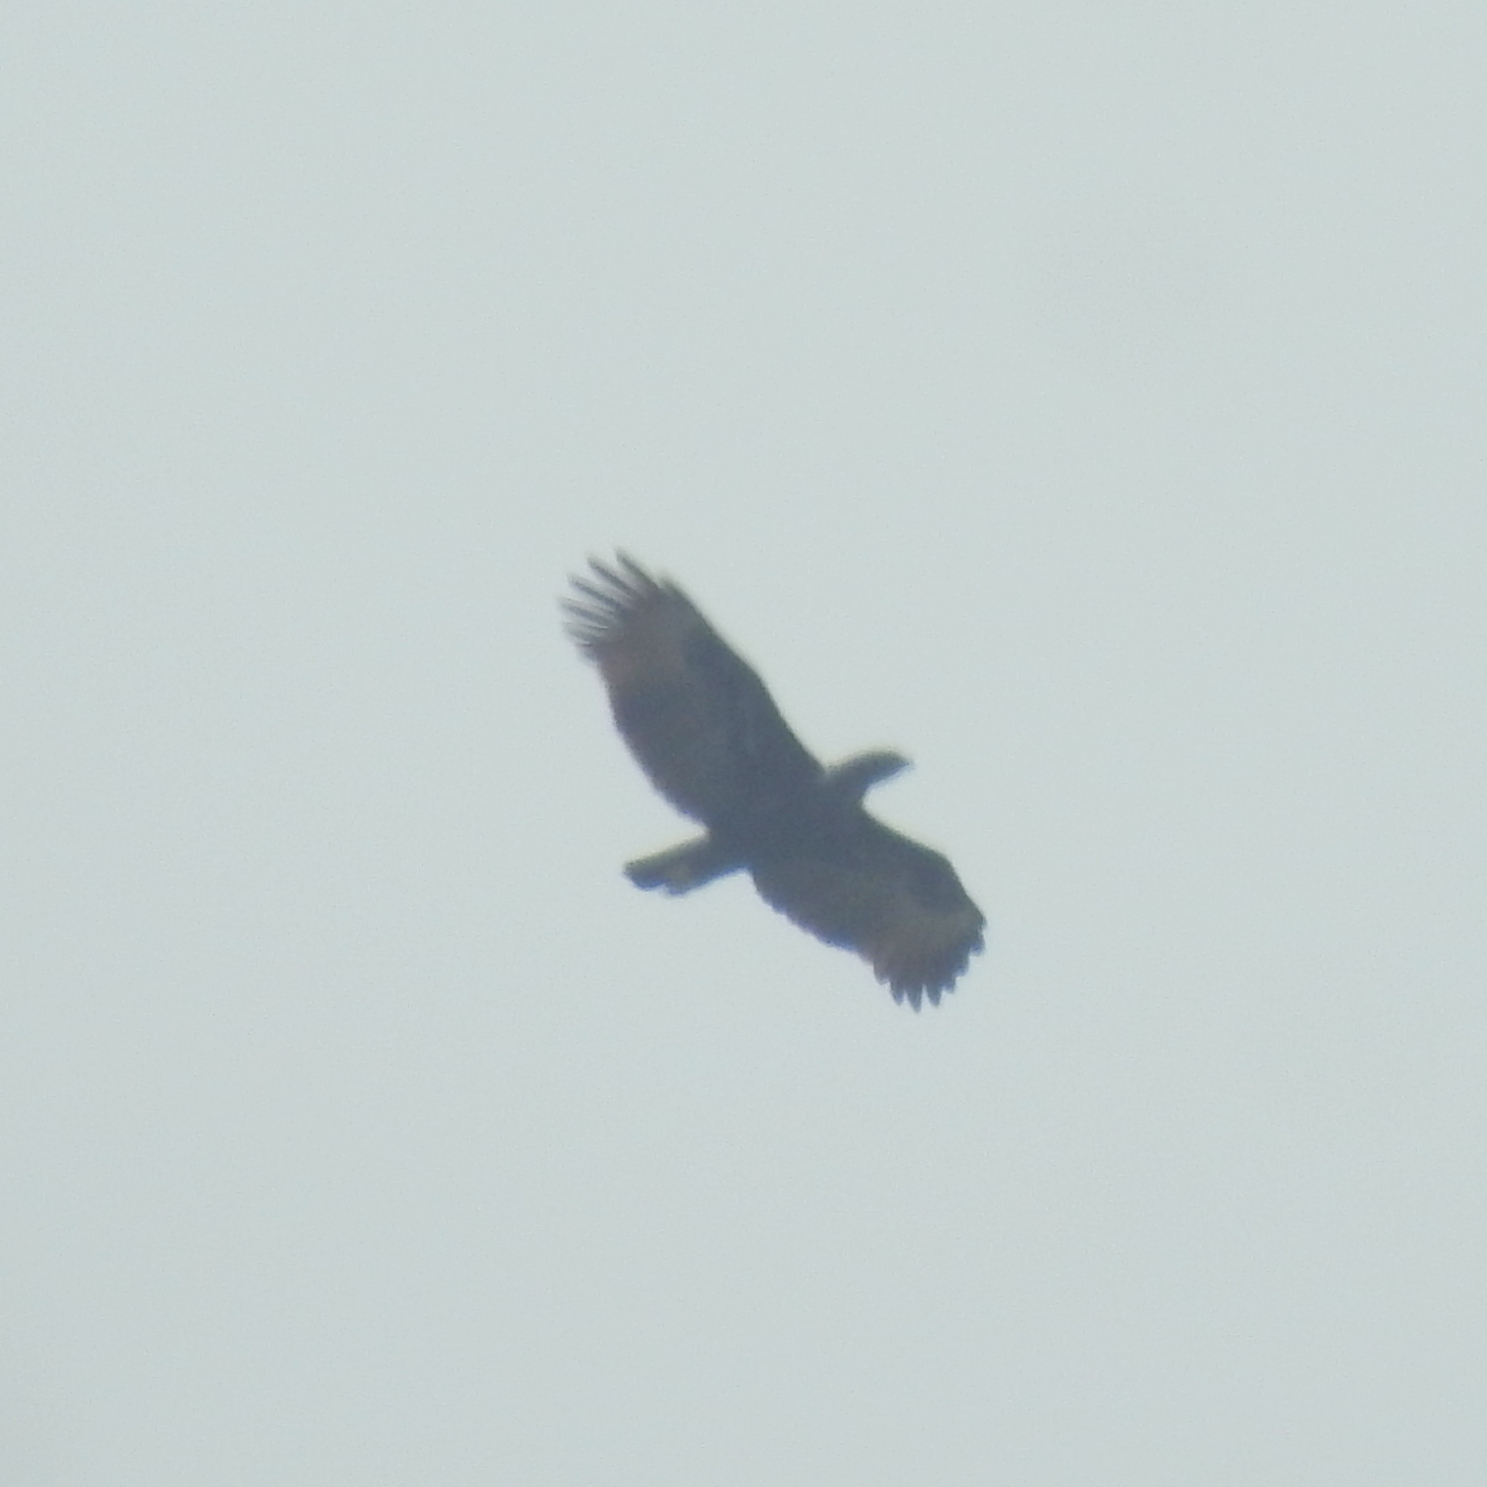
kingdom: Animalia
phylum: Chordata
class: Aves
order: Accipitriformes
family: Accipitridae
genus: Nisaetus
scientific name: Nisaetus cirrhatus
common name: Changeable hawk-eagle
